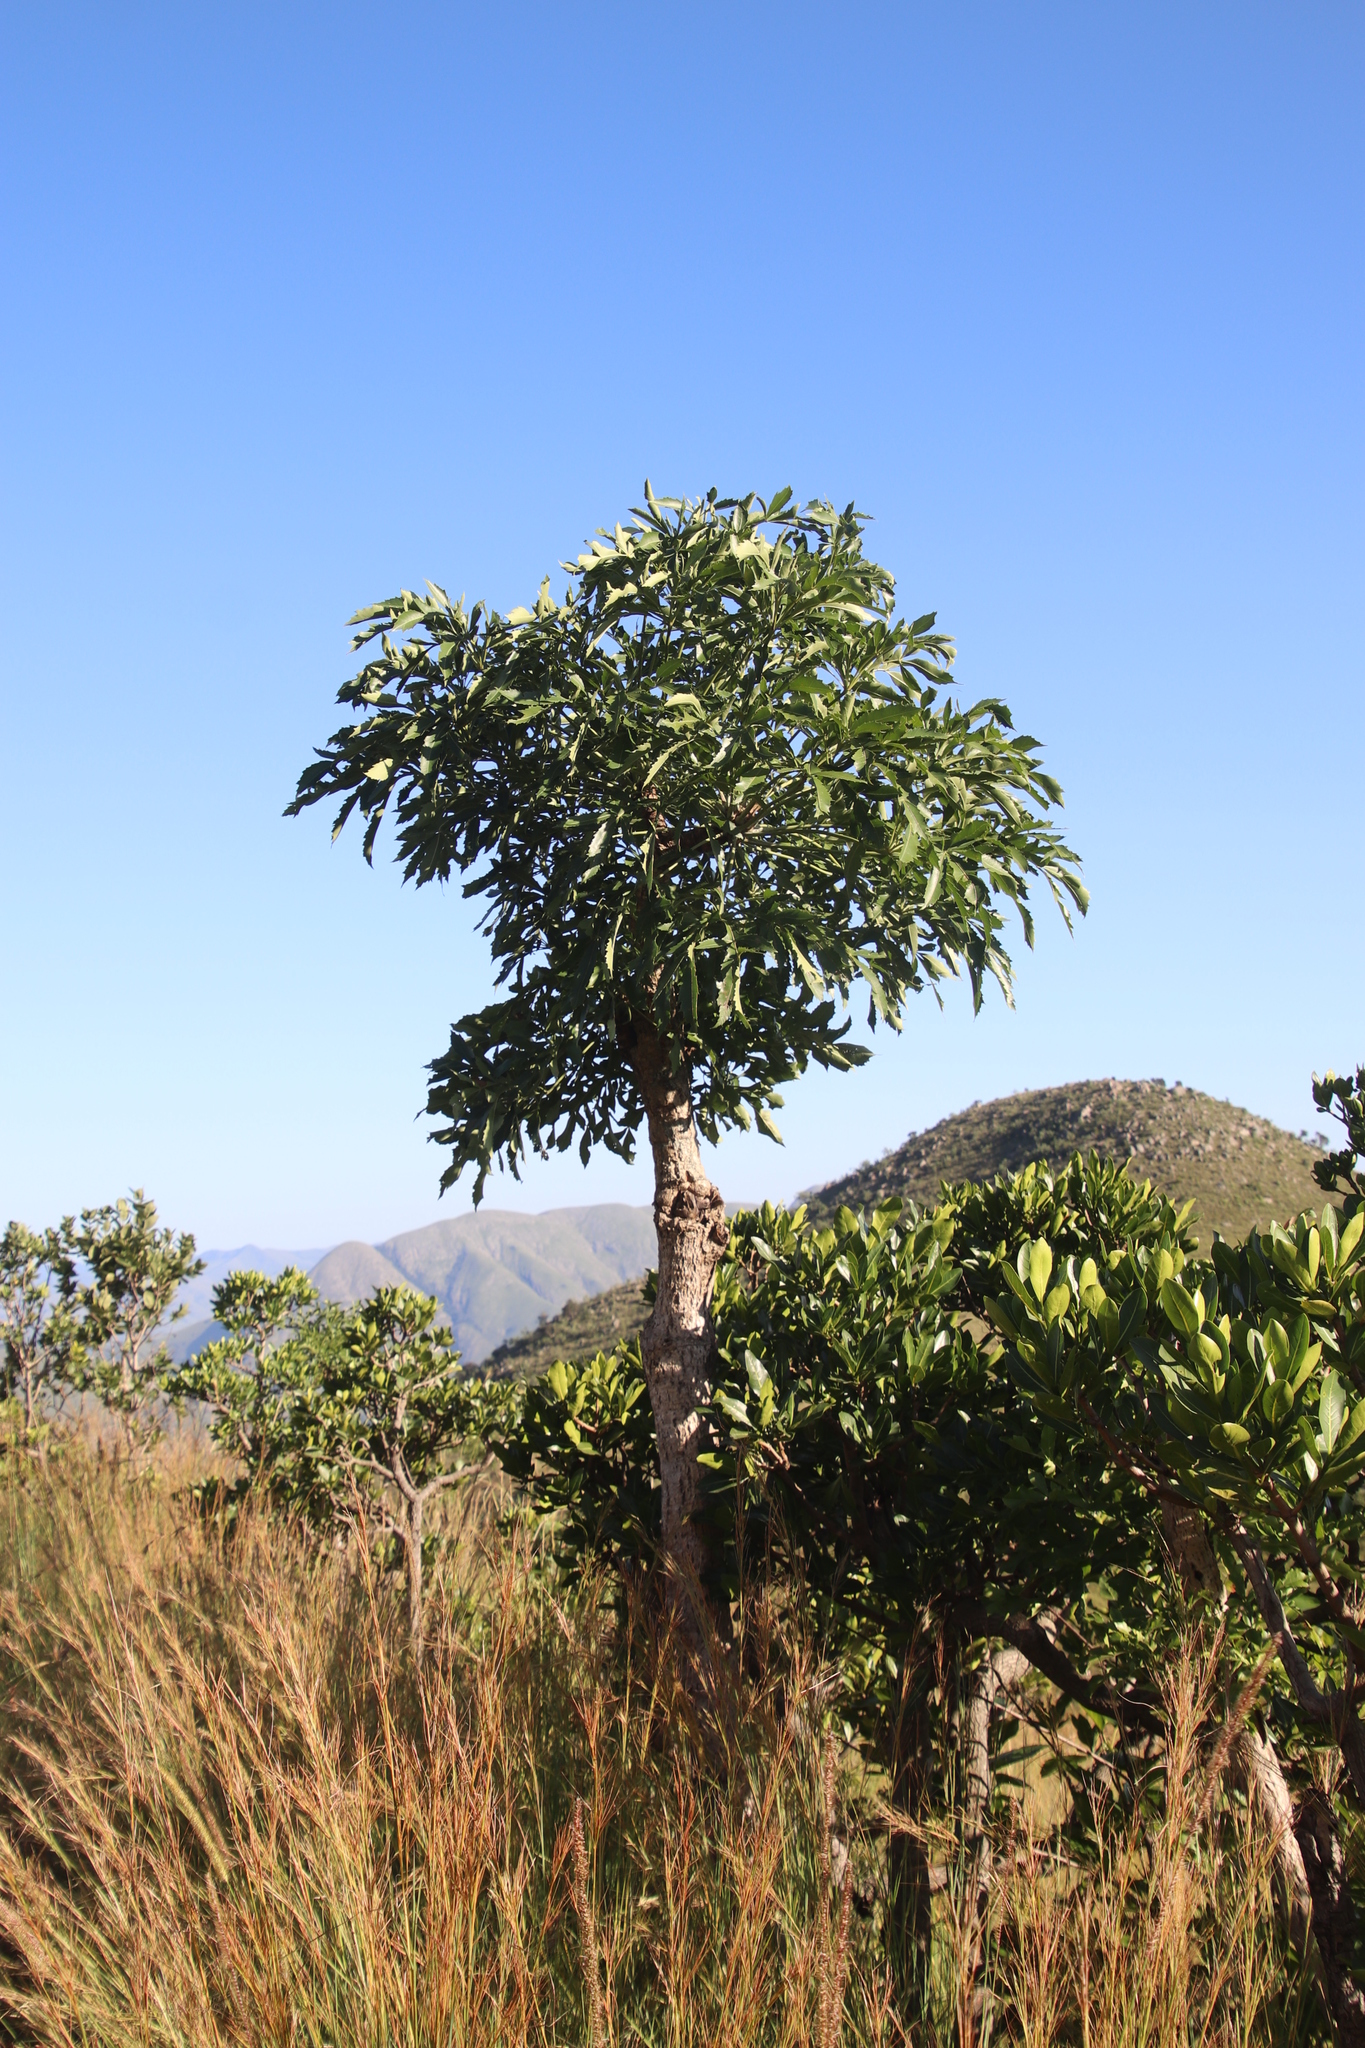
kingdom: Plantae
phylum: Tracheophyta
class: Magnoliopsida
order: Apiales
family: Araliaceae
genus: Cussonia
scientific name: Cussonia spicata
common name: Common cabbagetree
